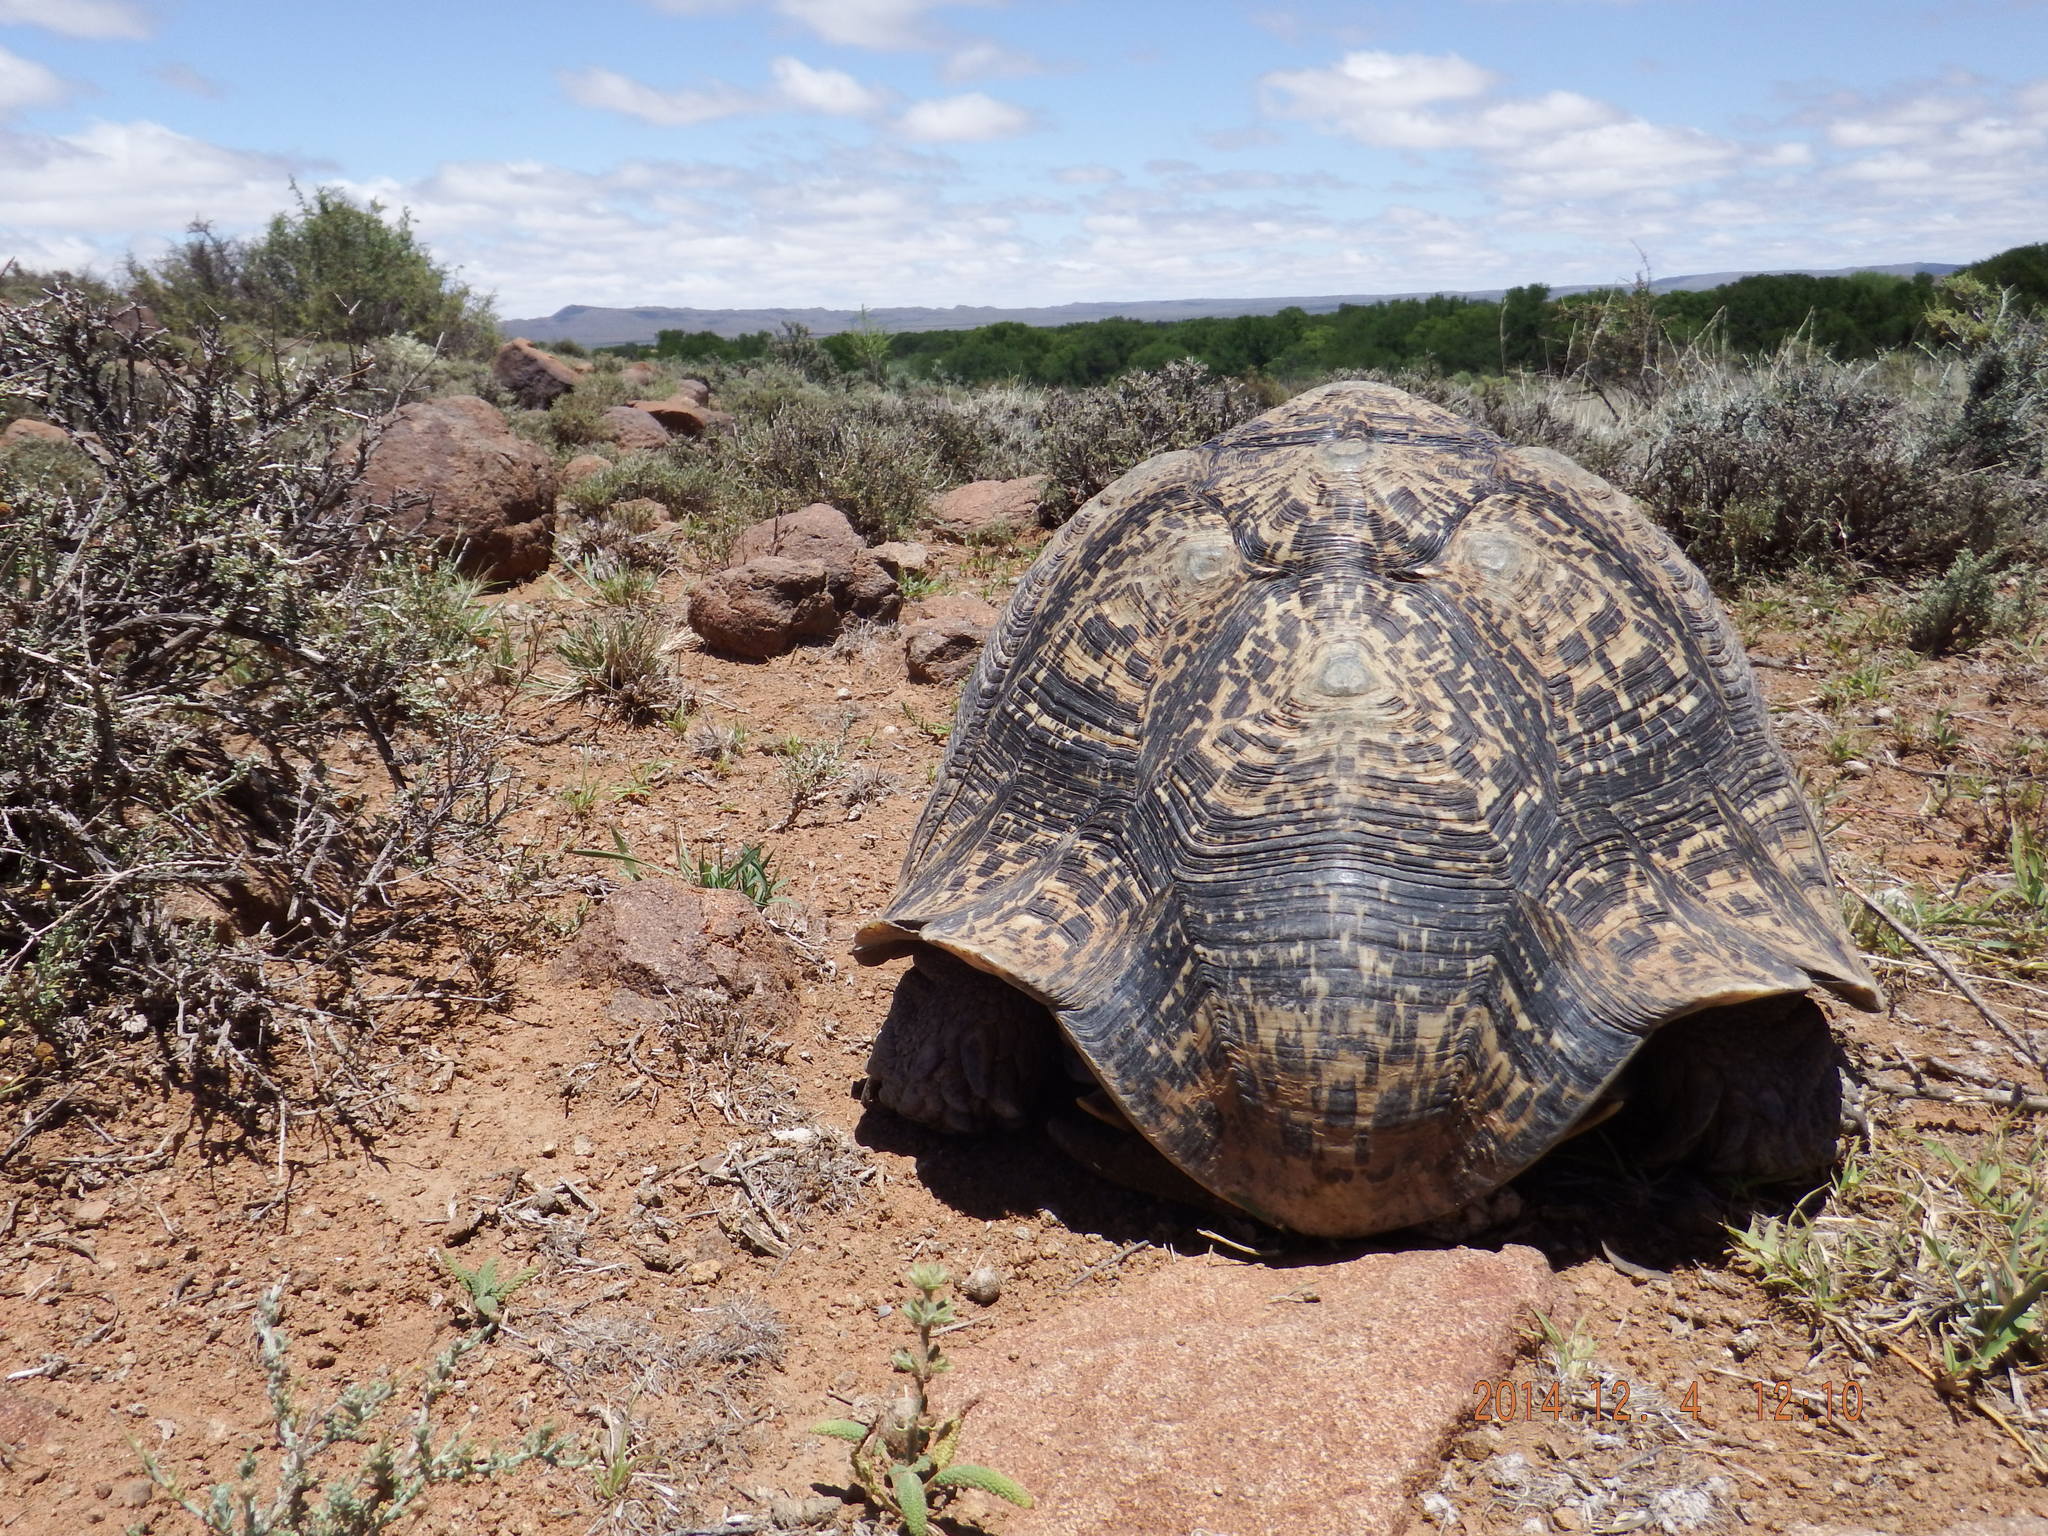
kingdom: Animalia
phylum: Chordata
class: Testudines
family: Testudinidae
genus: Stigmochelys
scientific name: Stigmochelys pardalis
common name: Leopard tortoise
